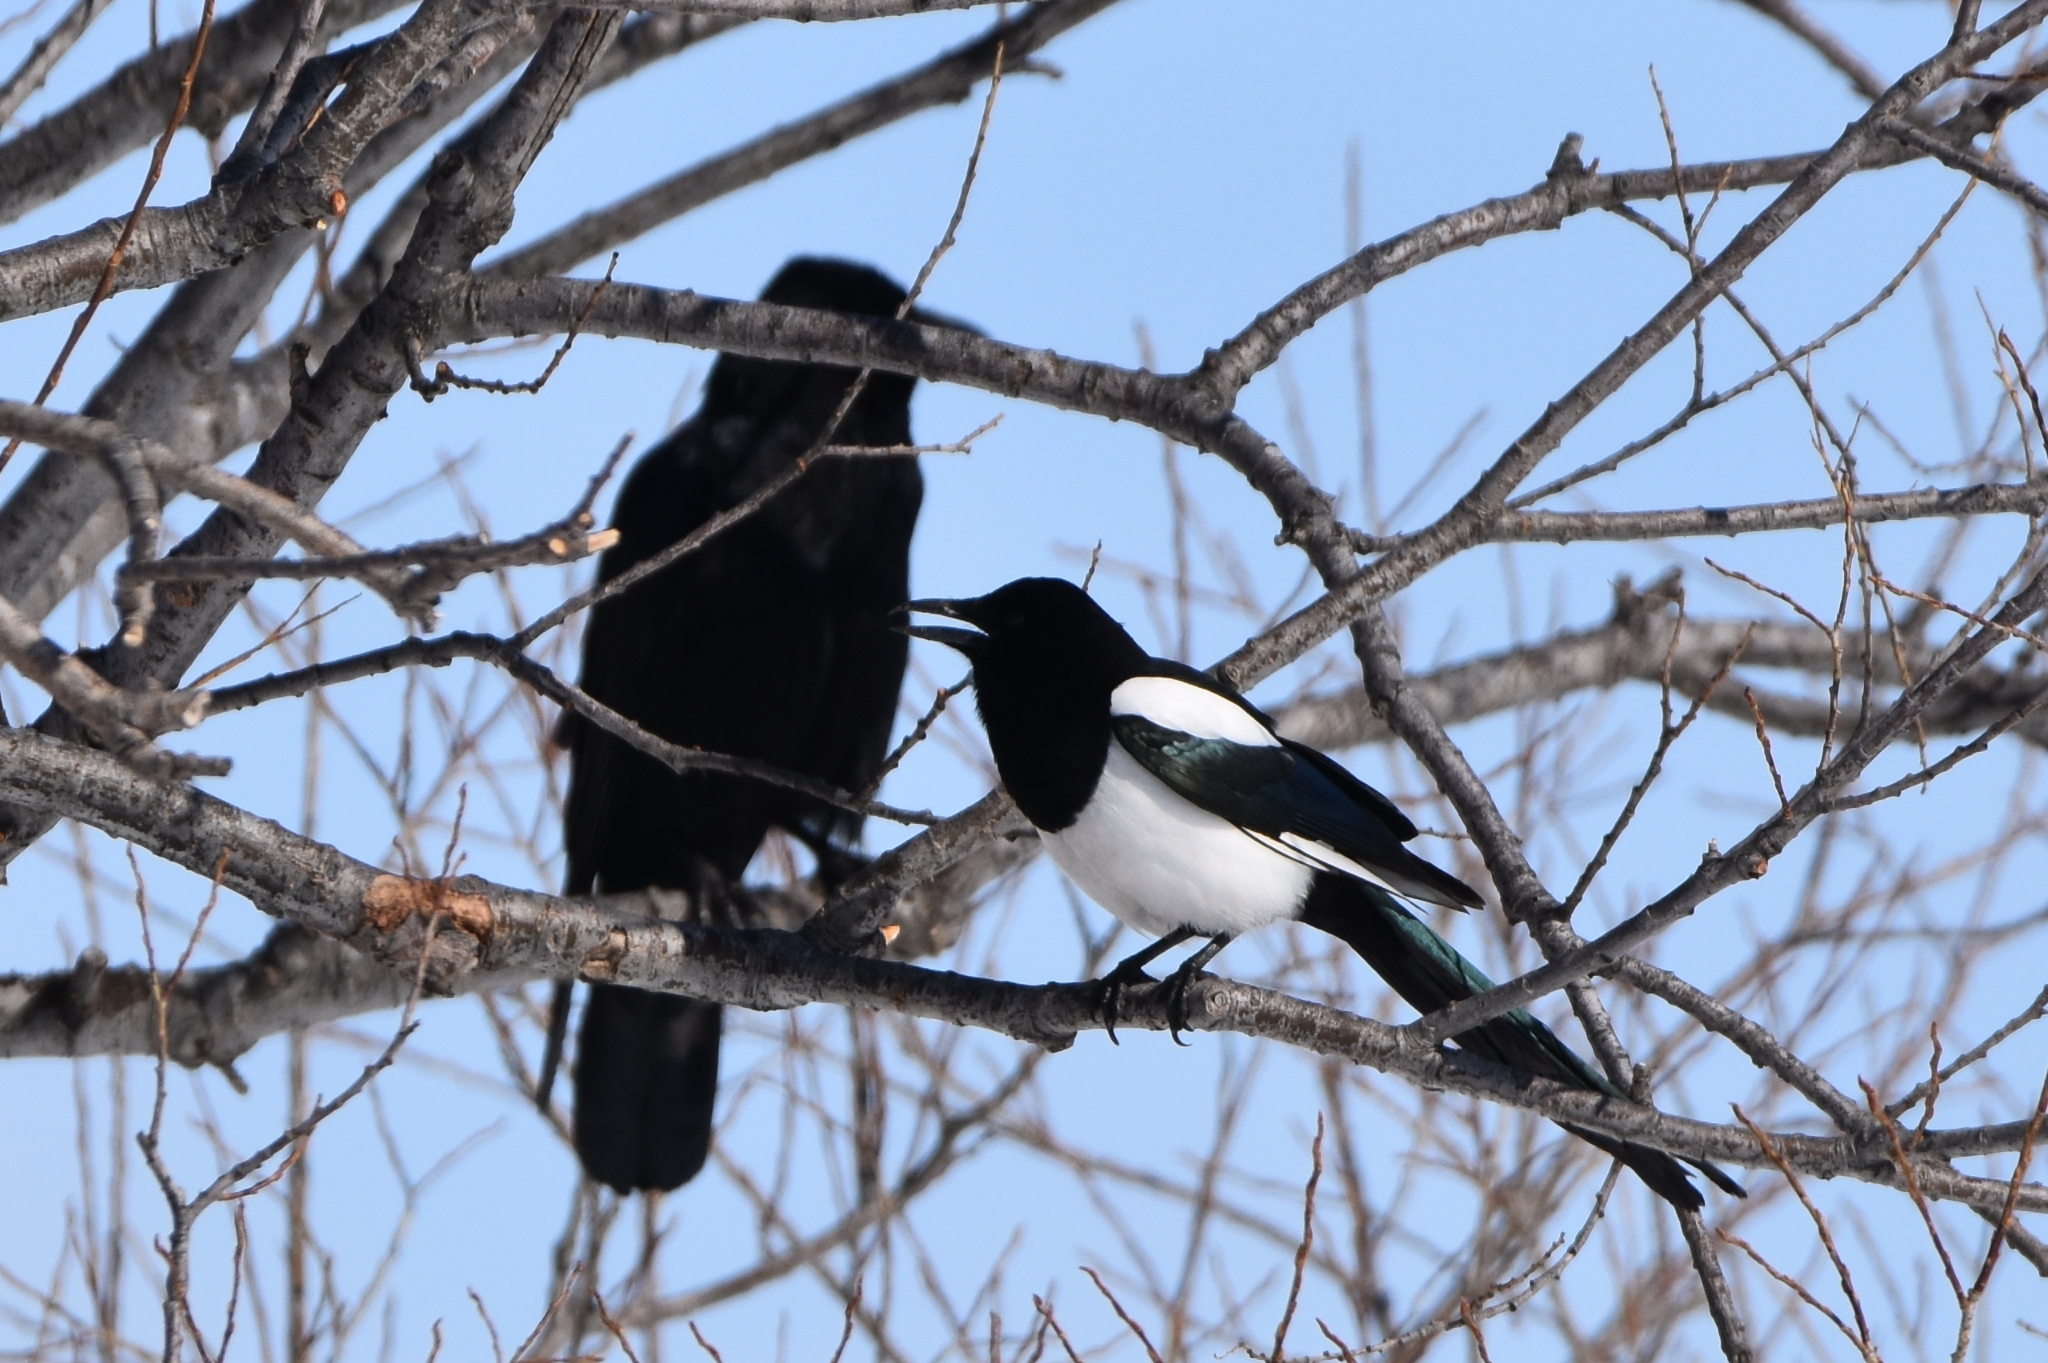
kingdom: Animalia
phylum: Chordata
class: Aves
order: Passeriformes
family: Corvidae
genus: Pica
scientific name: Pica pica
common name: Eurasian magpie
